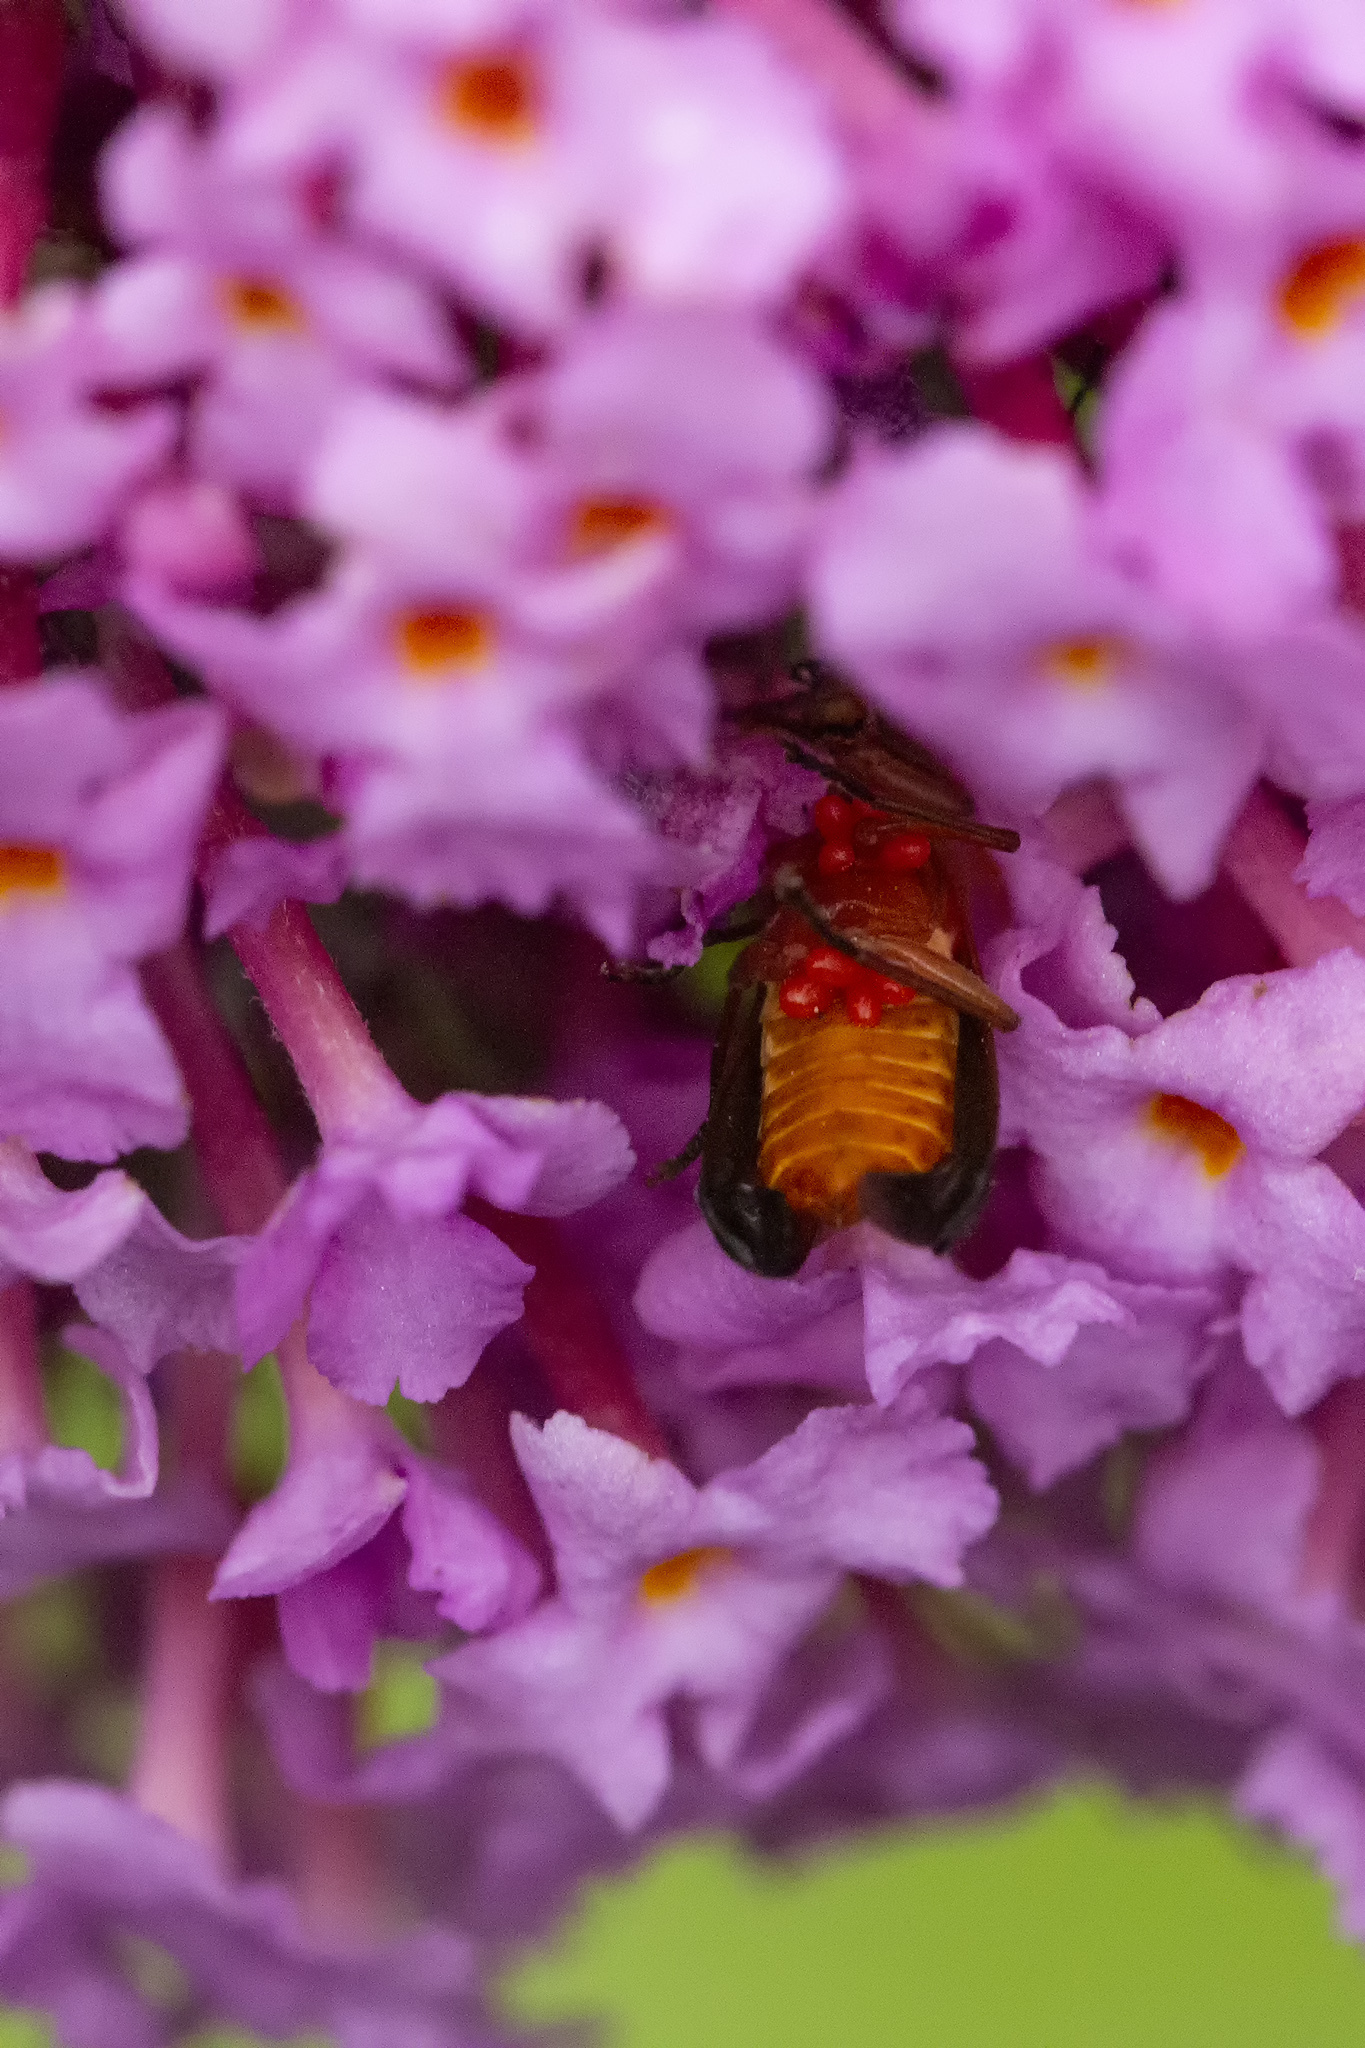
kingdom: Animalia
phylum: Arthropoda
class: Insecta
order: Coleoptera
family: Cantharidae
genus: Rhagonycha
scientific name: Rhagonycha fulva
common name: Common red soldier beetle
